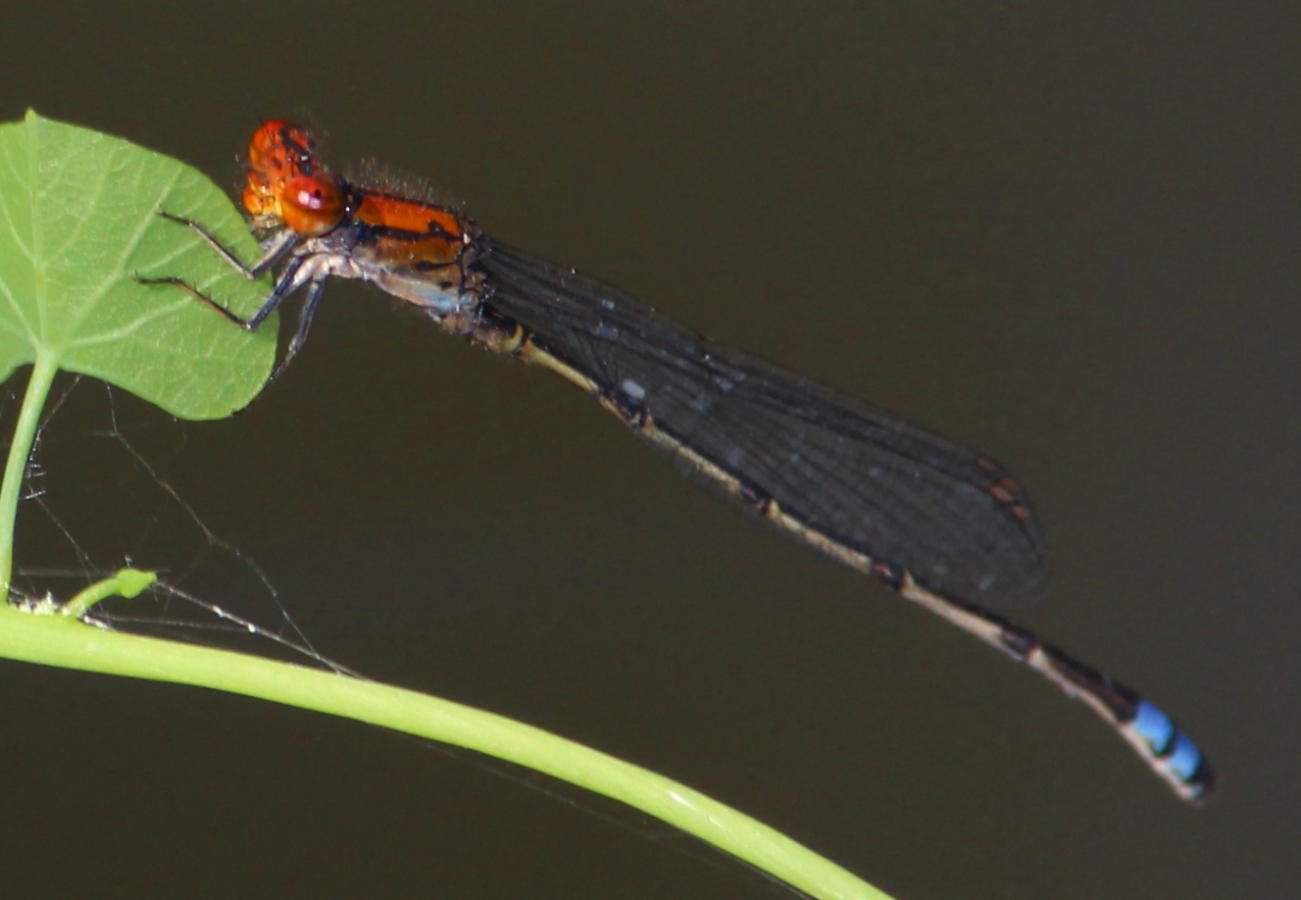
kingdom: Animalia
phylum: Arthropoda
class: Insecta
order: Odonata
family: Coenagrionidae
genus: Pseudagrion
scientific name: Pseudagrion massaicum
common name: Masai sprite
